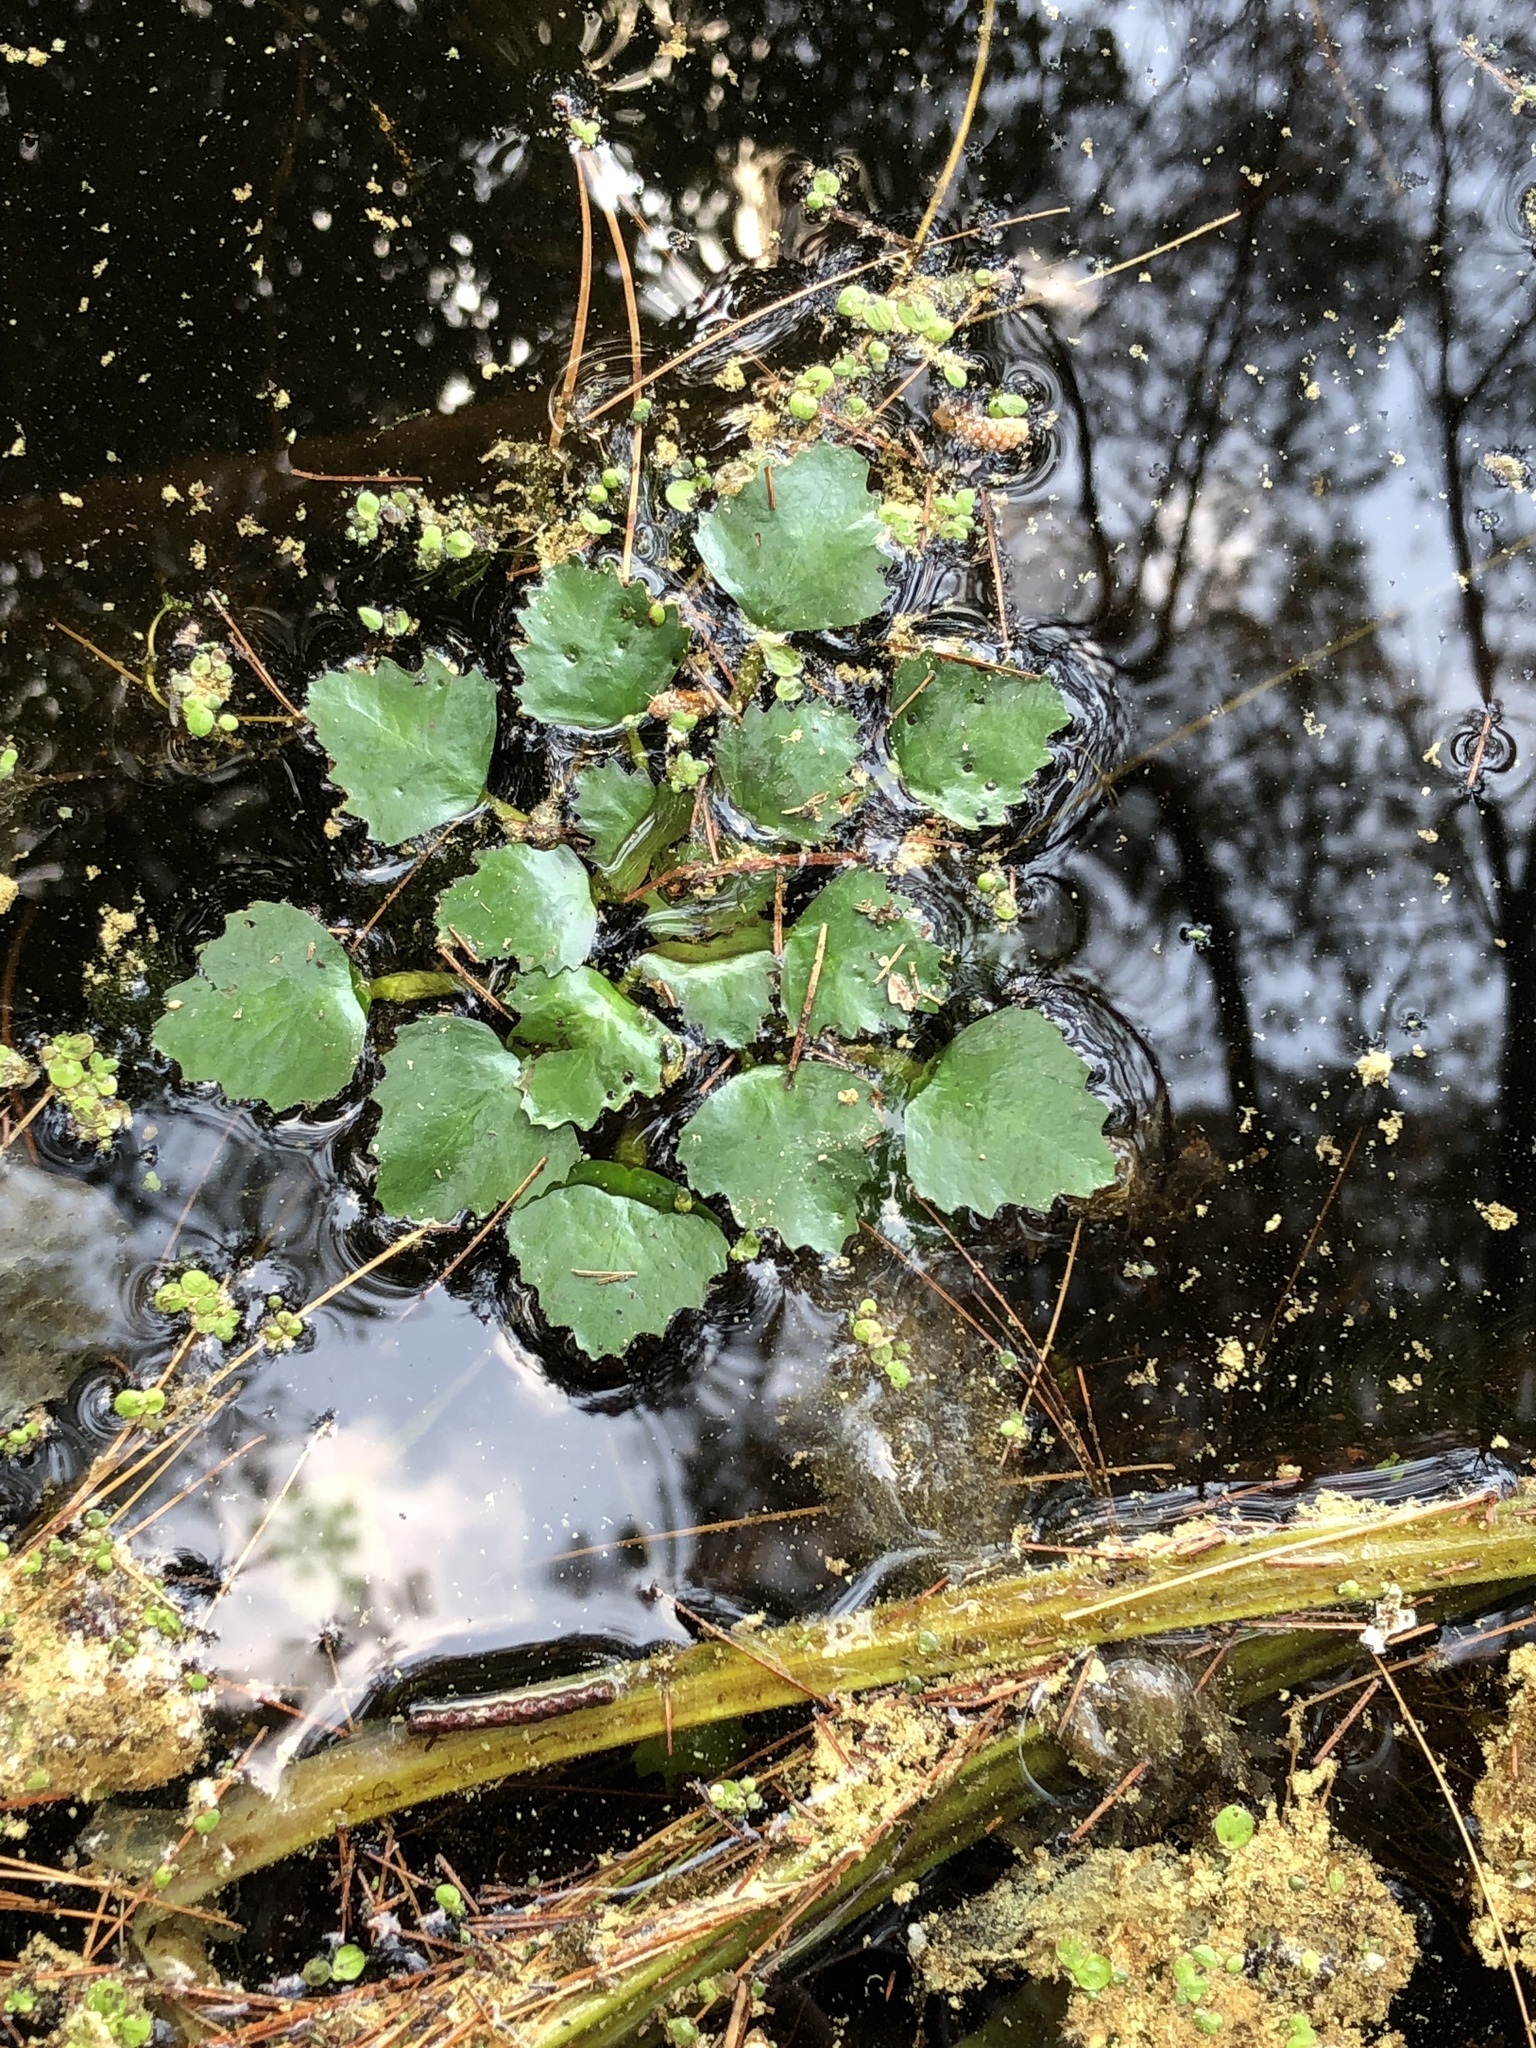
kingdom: Plantae
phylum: Tracheophyta
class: Magnoliopsida
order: Myrtales
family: Lythraceae
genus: Trapa
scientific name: Trapa natans
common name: Water chestnut
